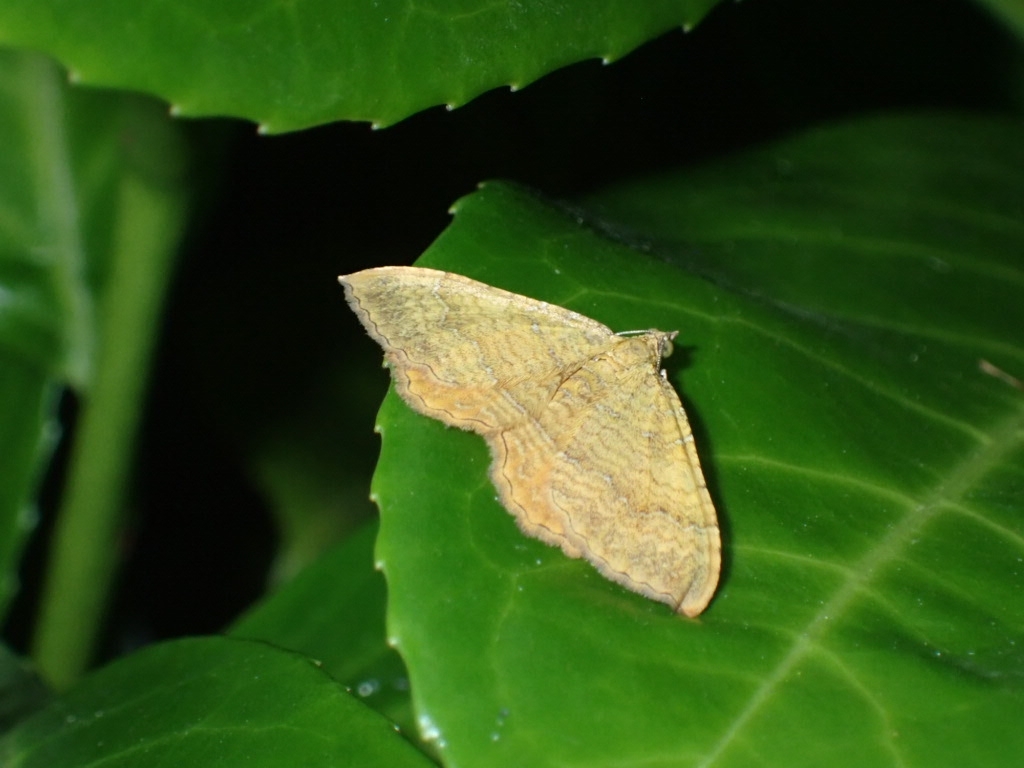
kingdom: Animalia
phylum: Arthropoda
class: Insecta
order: Lepidoptera
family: Geometridae
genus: Camptogramma
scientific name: Camptogramma bilineata
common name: Yellow shell
